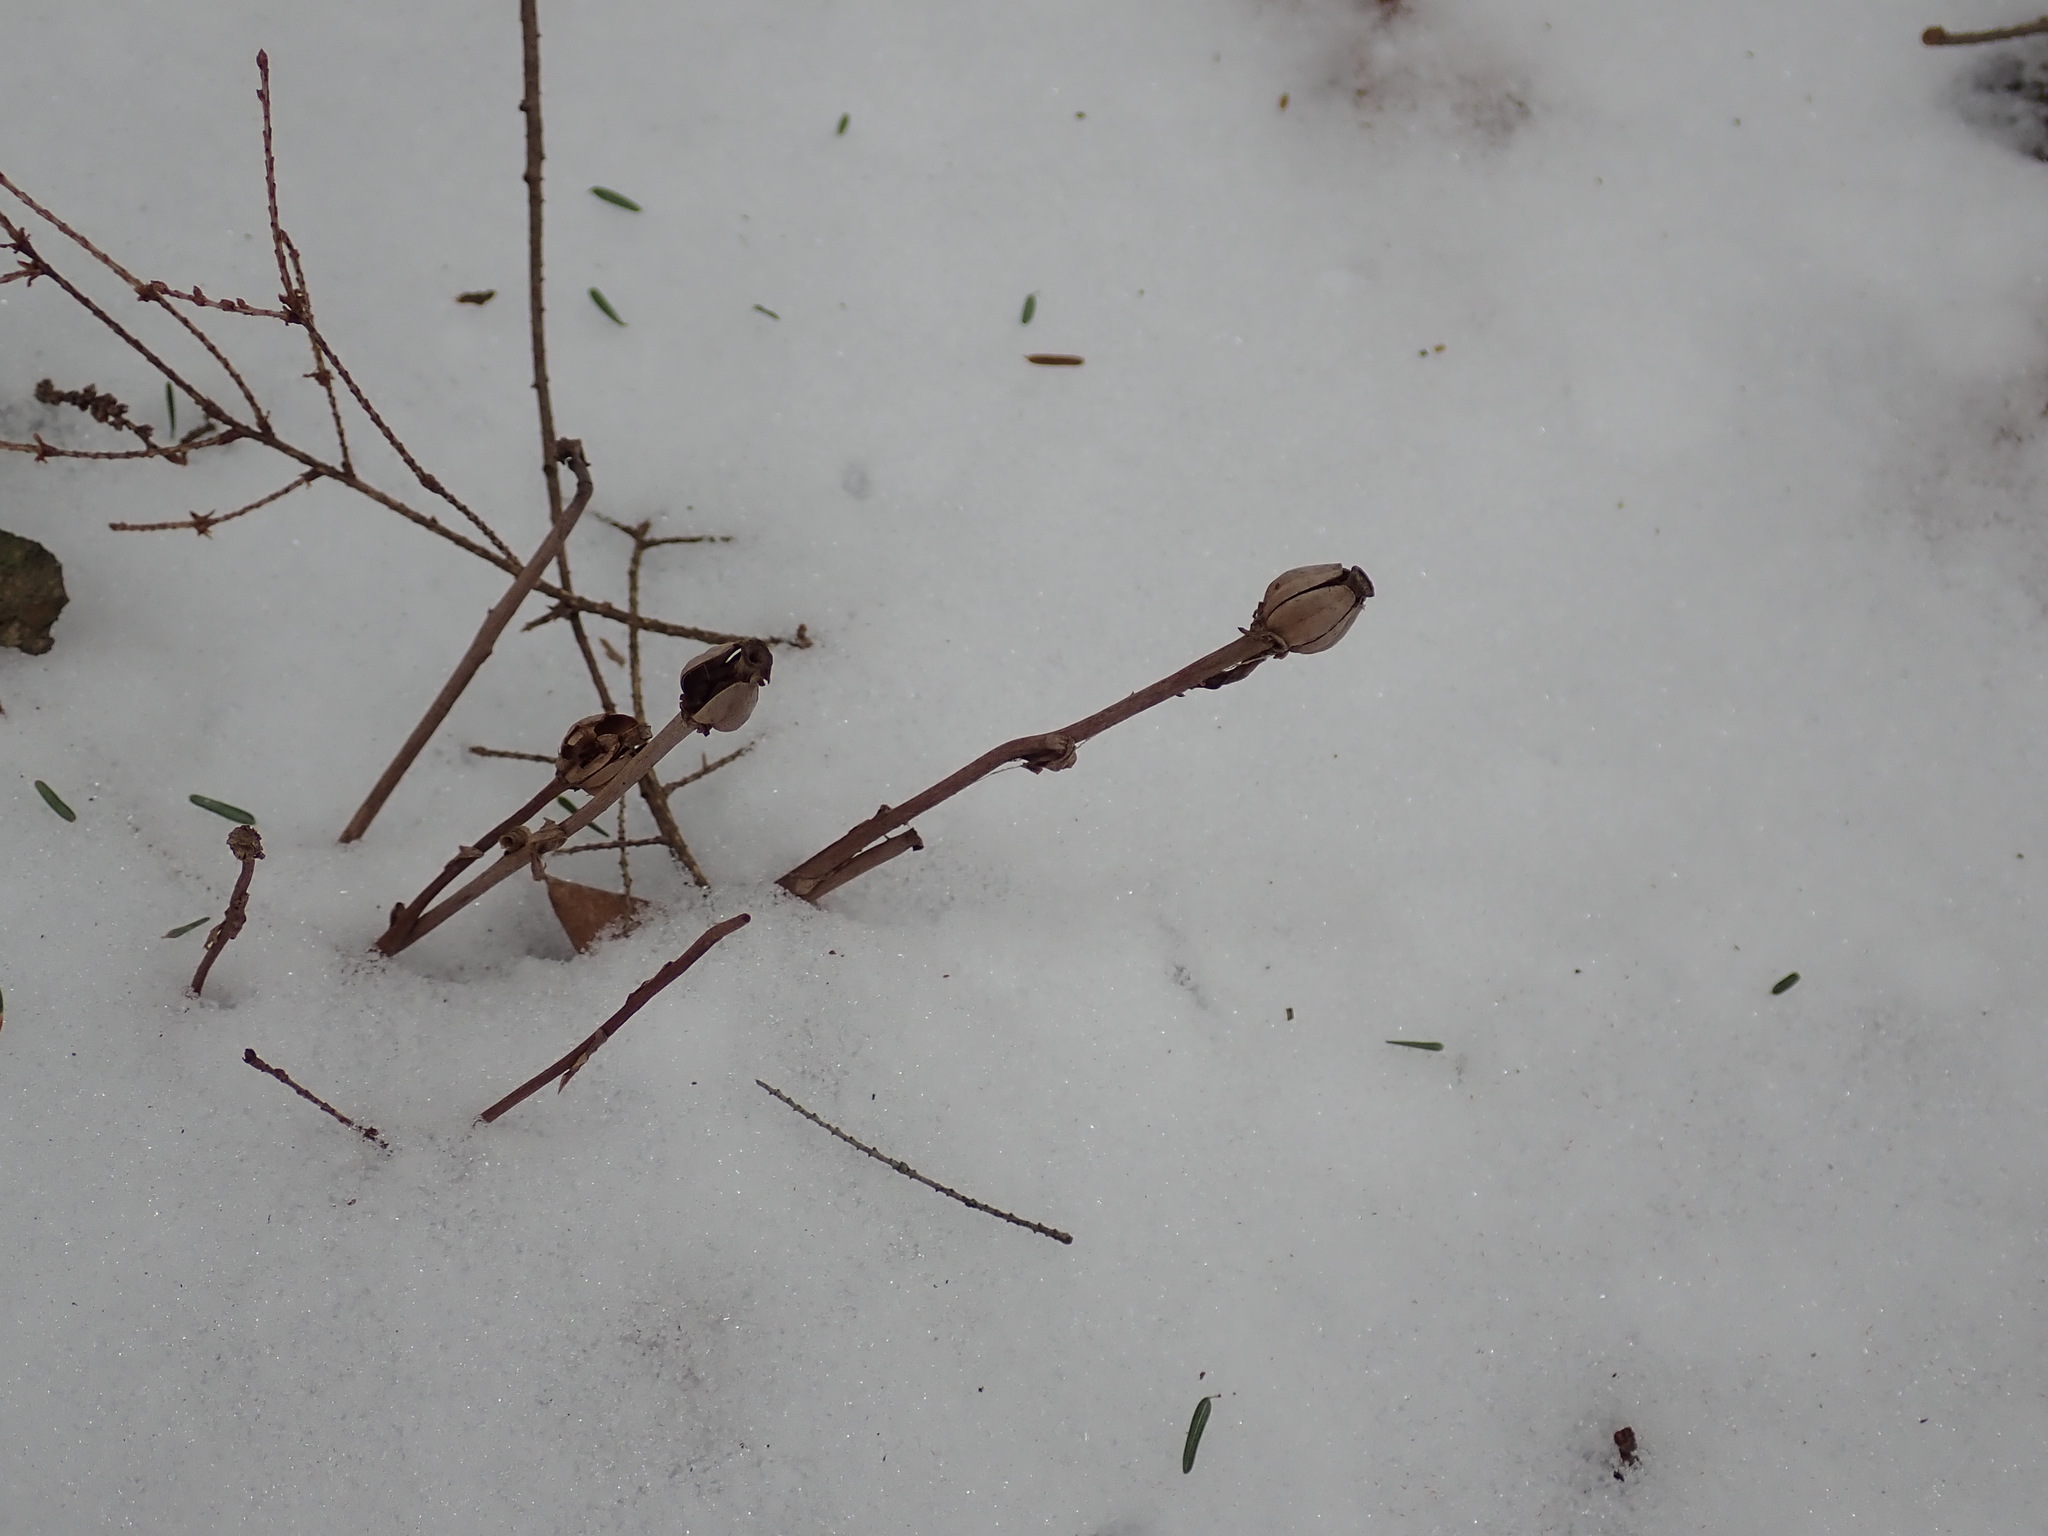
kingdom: Plantae
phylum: Tracheophyta
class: Magnoliopsida
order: Ericales
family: Ericaceae
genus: Monotropa
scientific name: Monotropa uniflora
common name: Convulsion root
